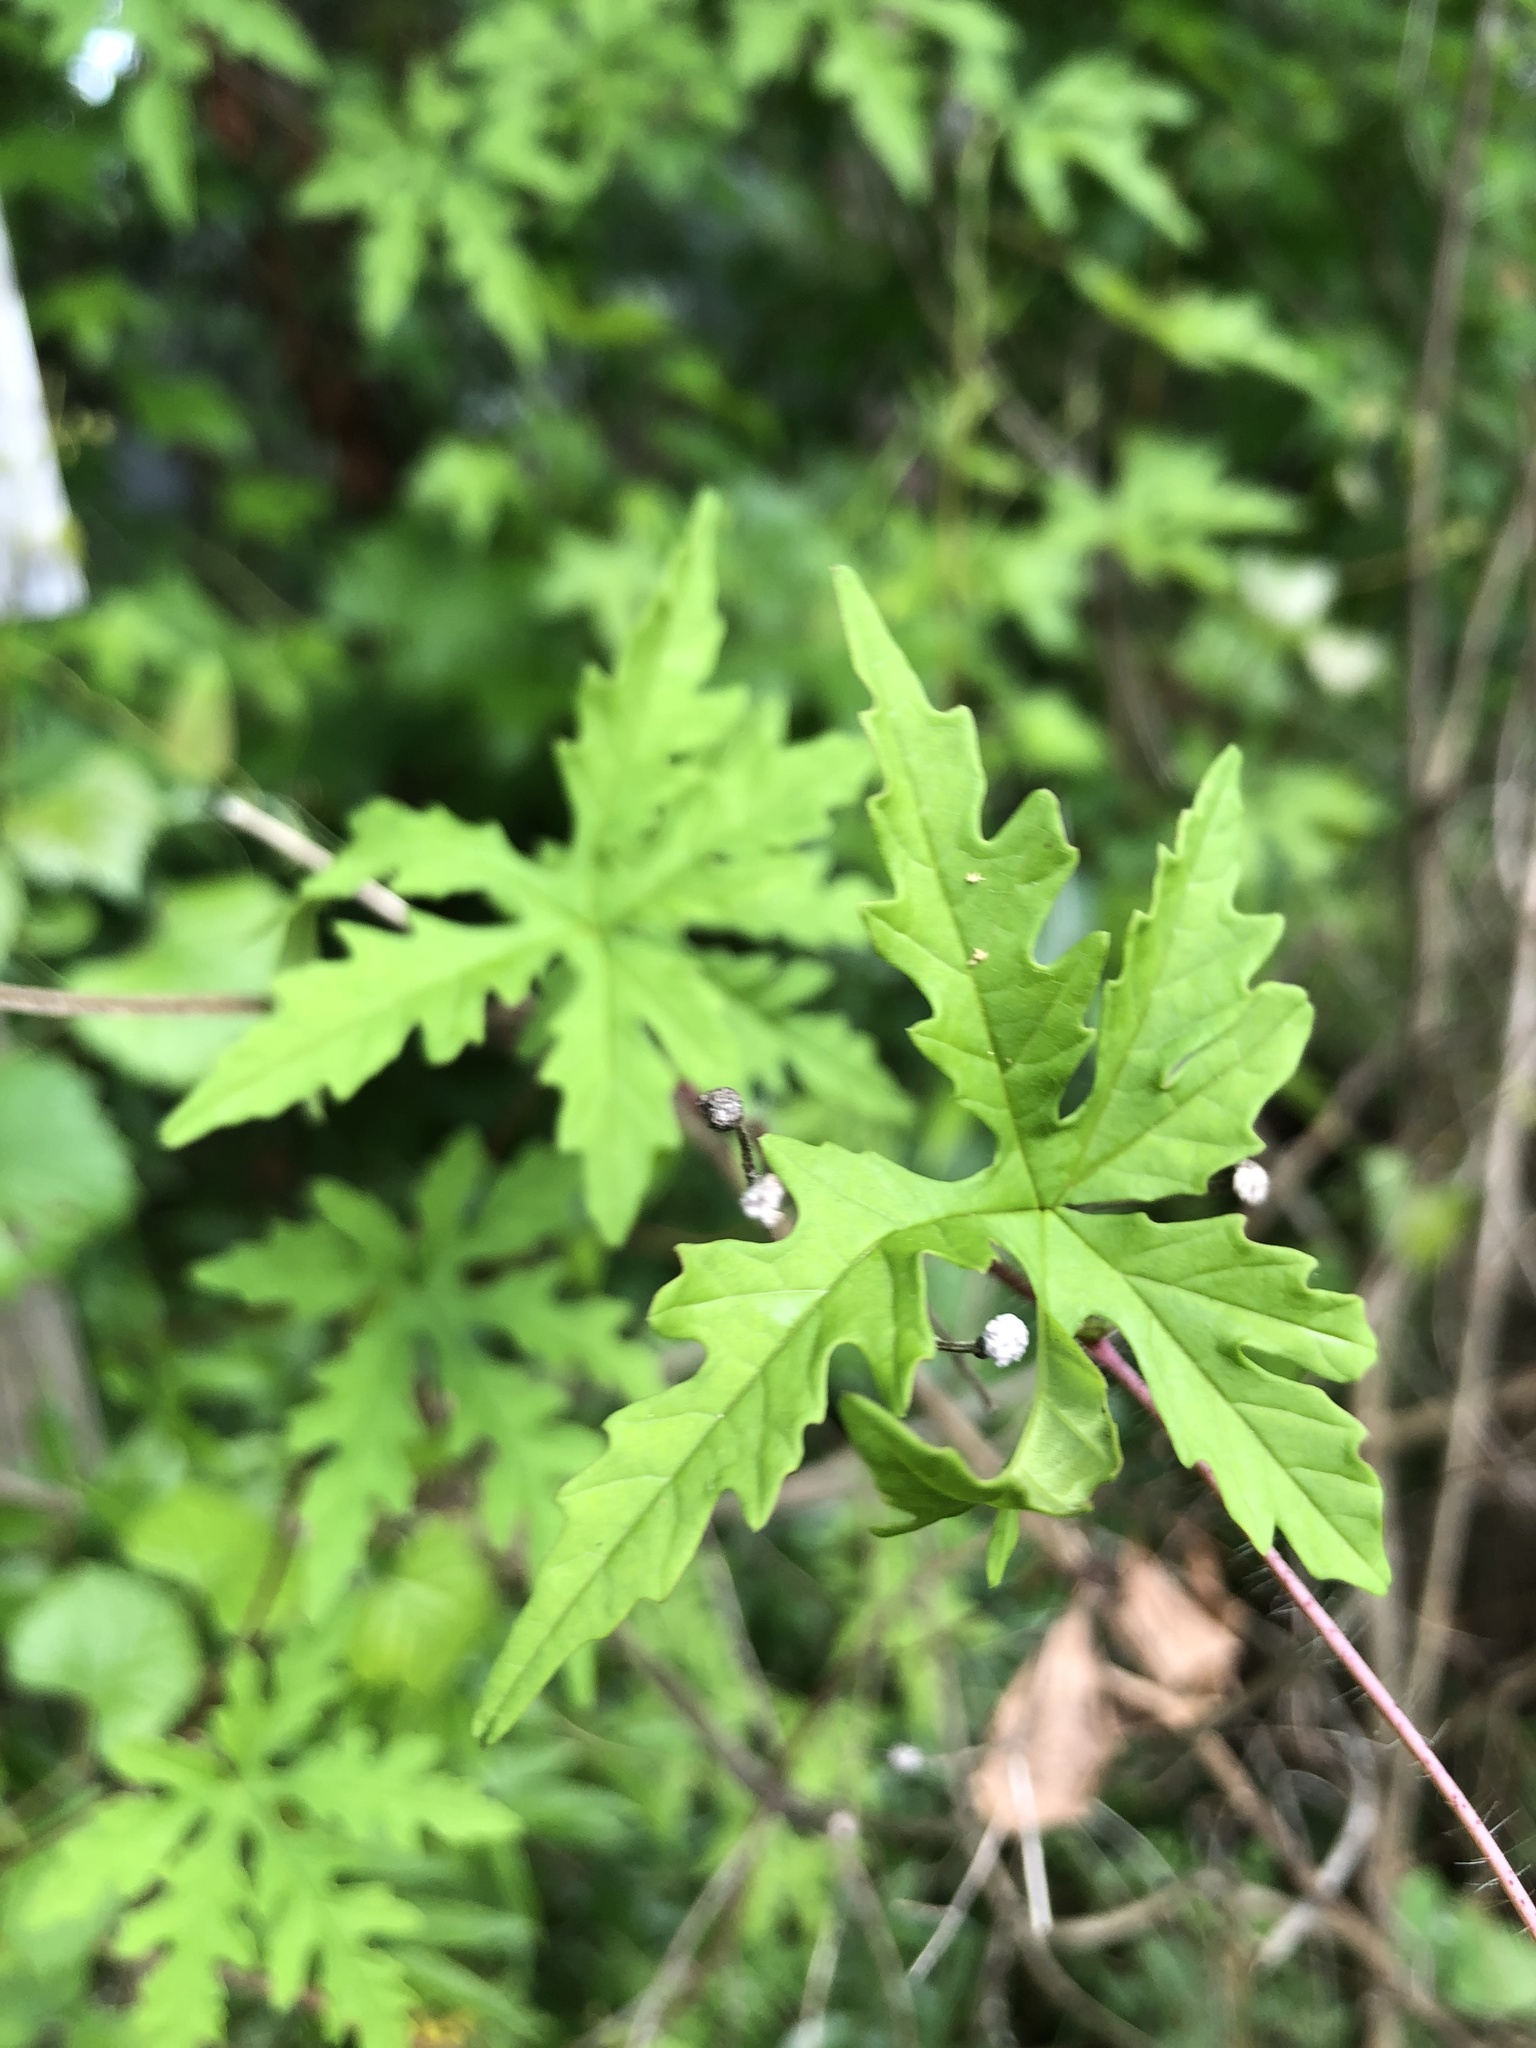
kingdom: Plantae
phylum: Tracheophyta
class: Magnoliopsida
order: Solanales
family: Convolvulaceae
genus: Distimake
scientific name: Distimake dissectus
